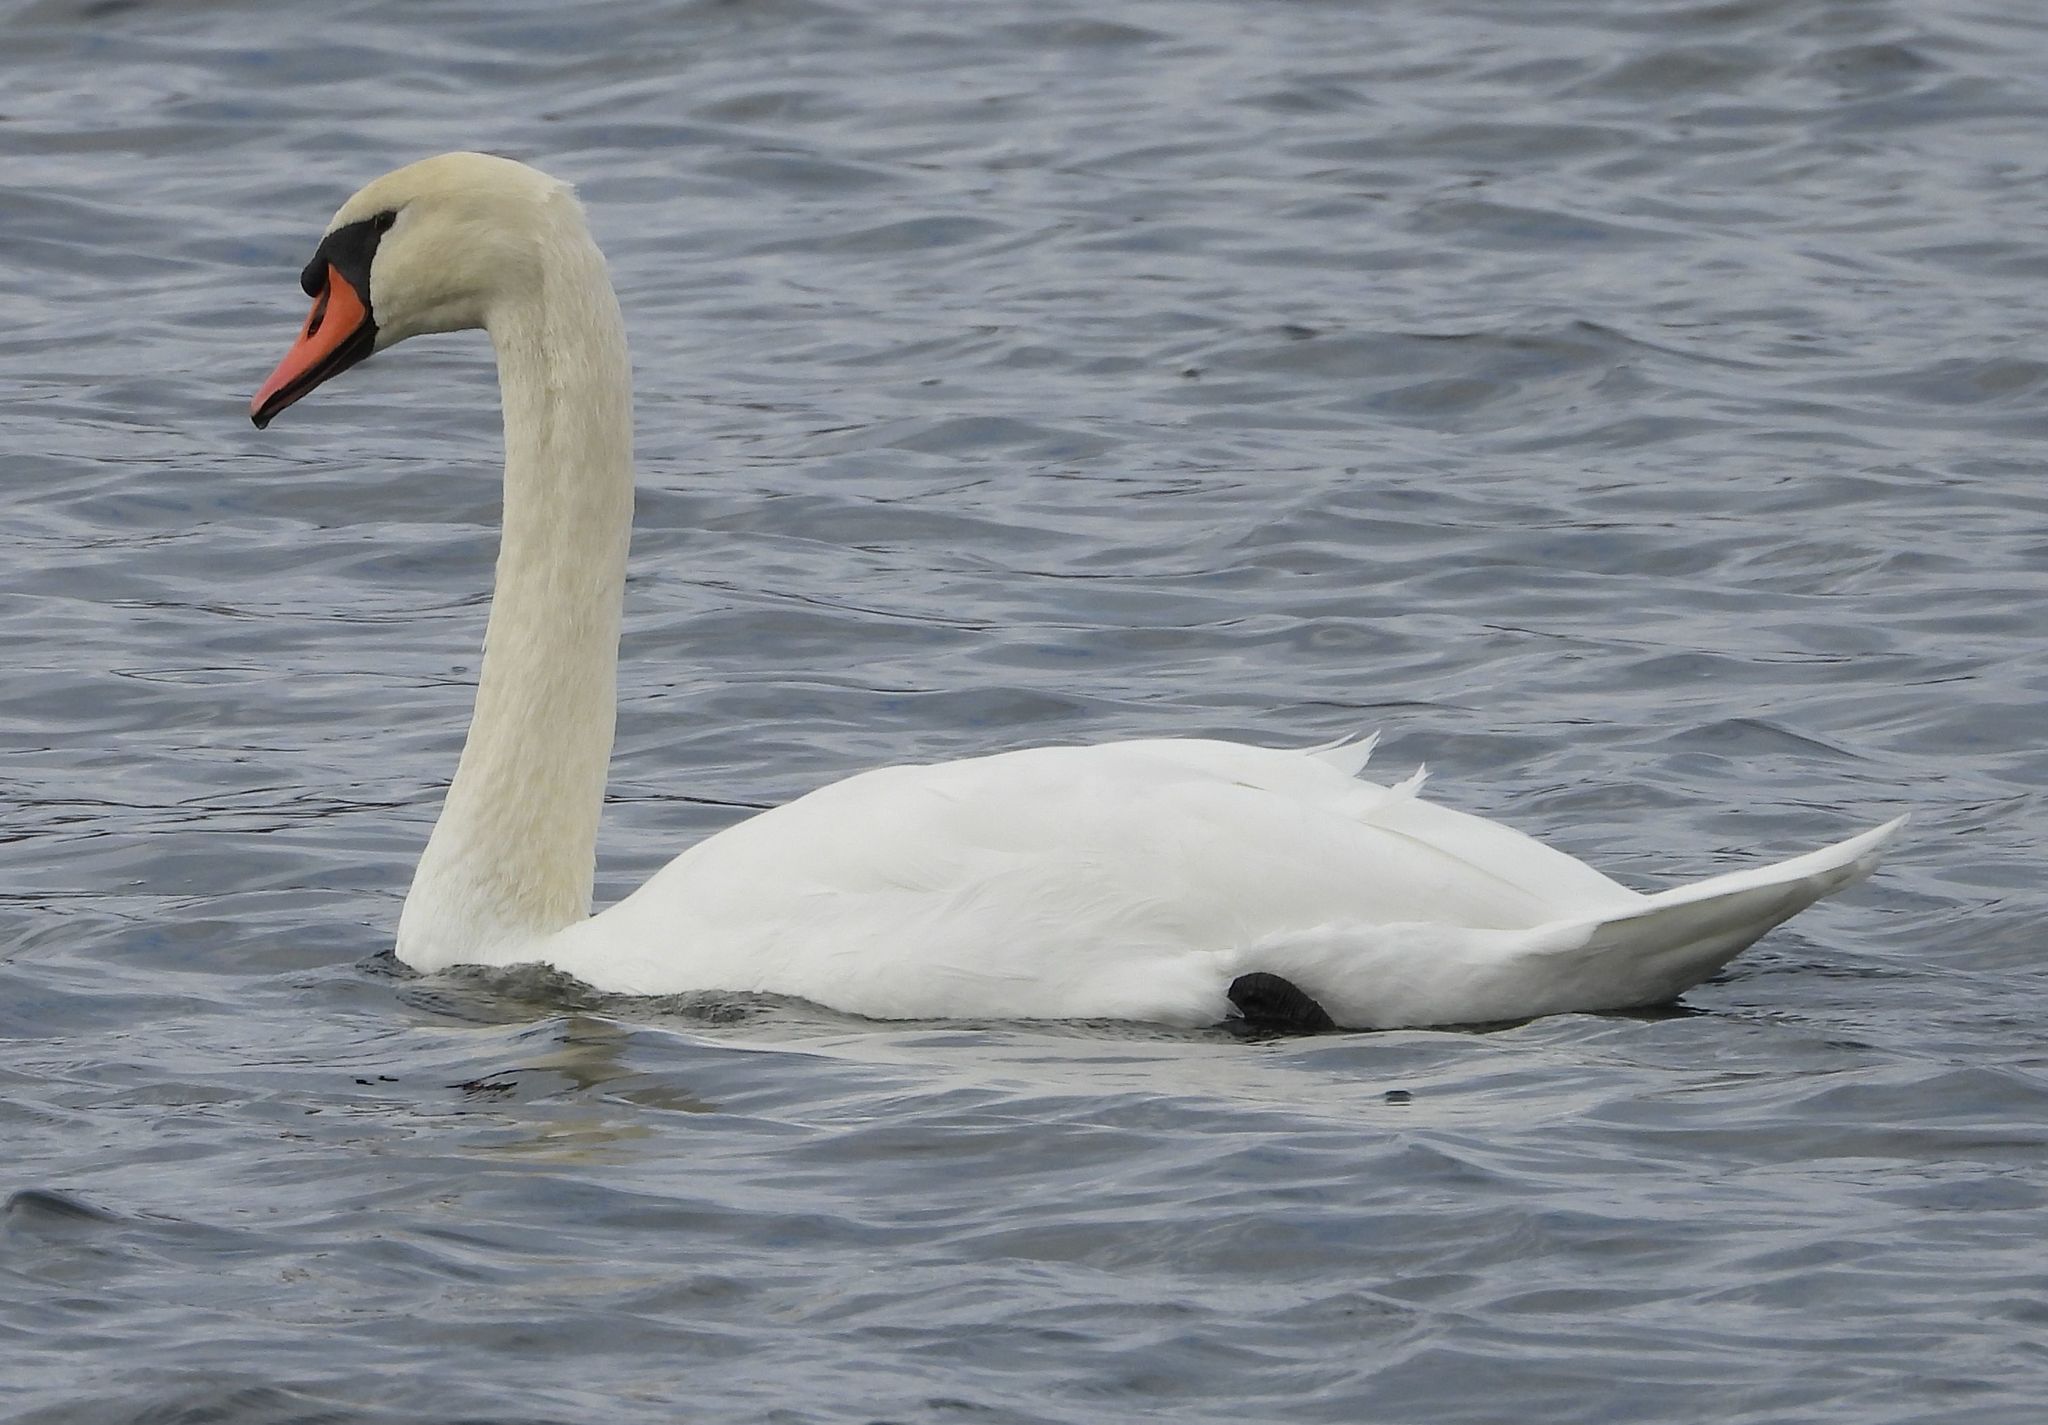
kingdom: Animalia
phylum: Chordata
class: Aves
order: Anseriformes
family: Anatidae
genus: Cygnus
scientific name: Cygnus olor
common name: Mute swan
